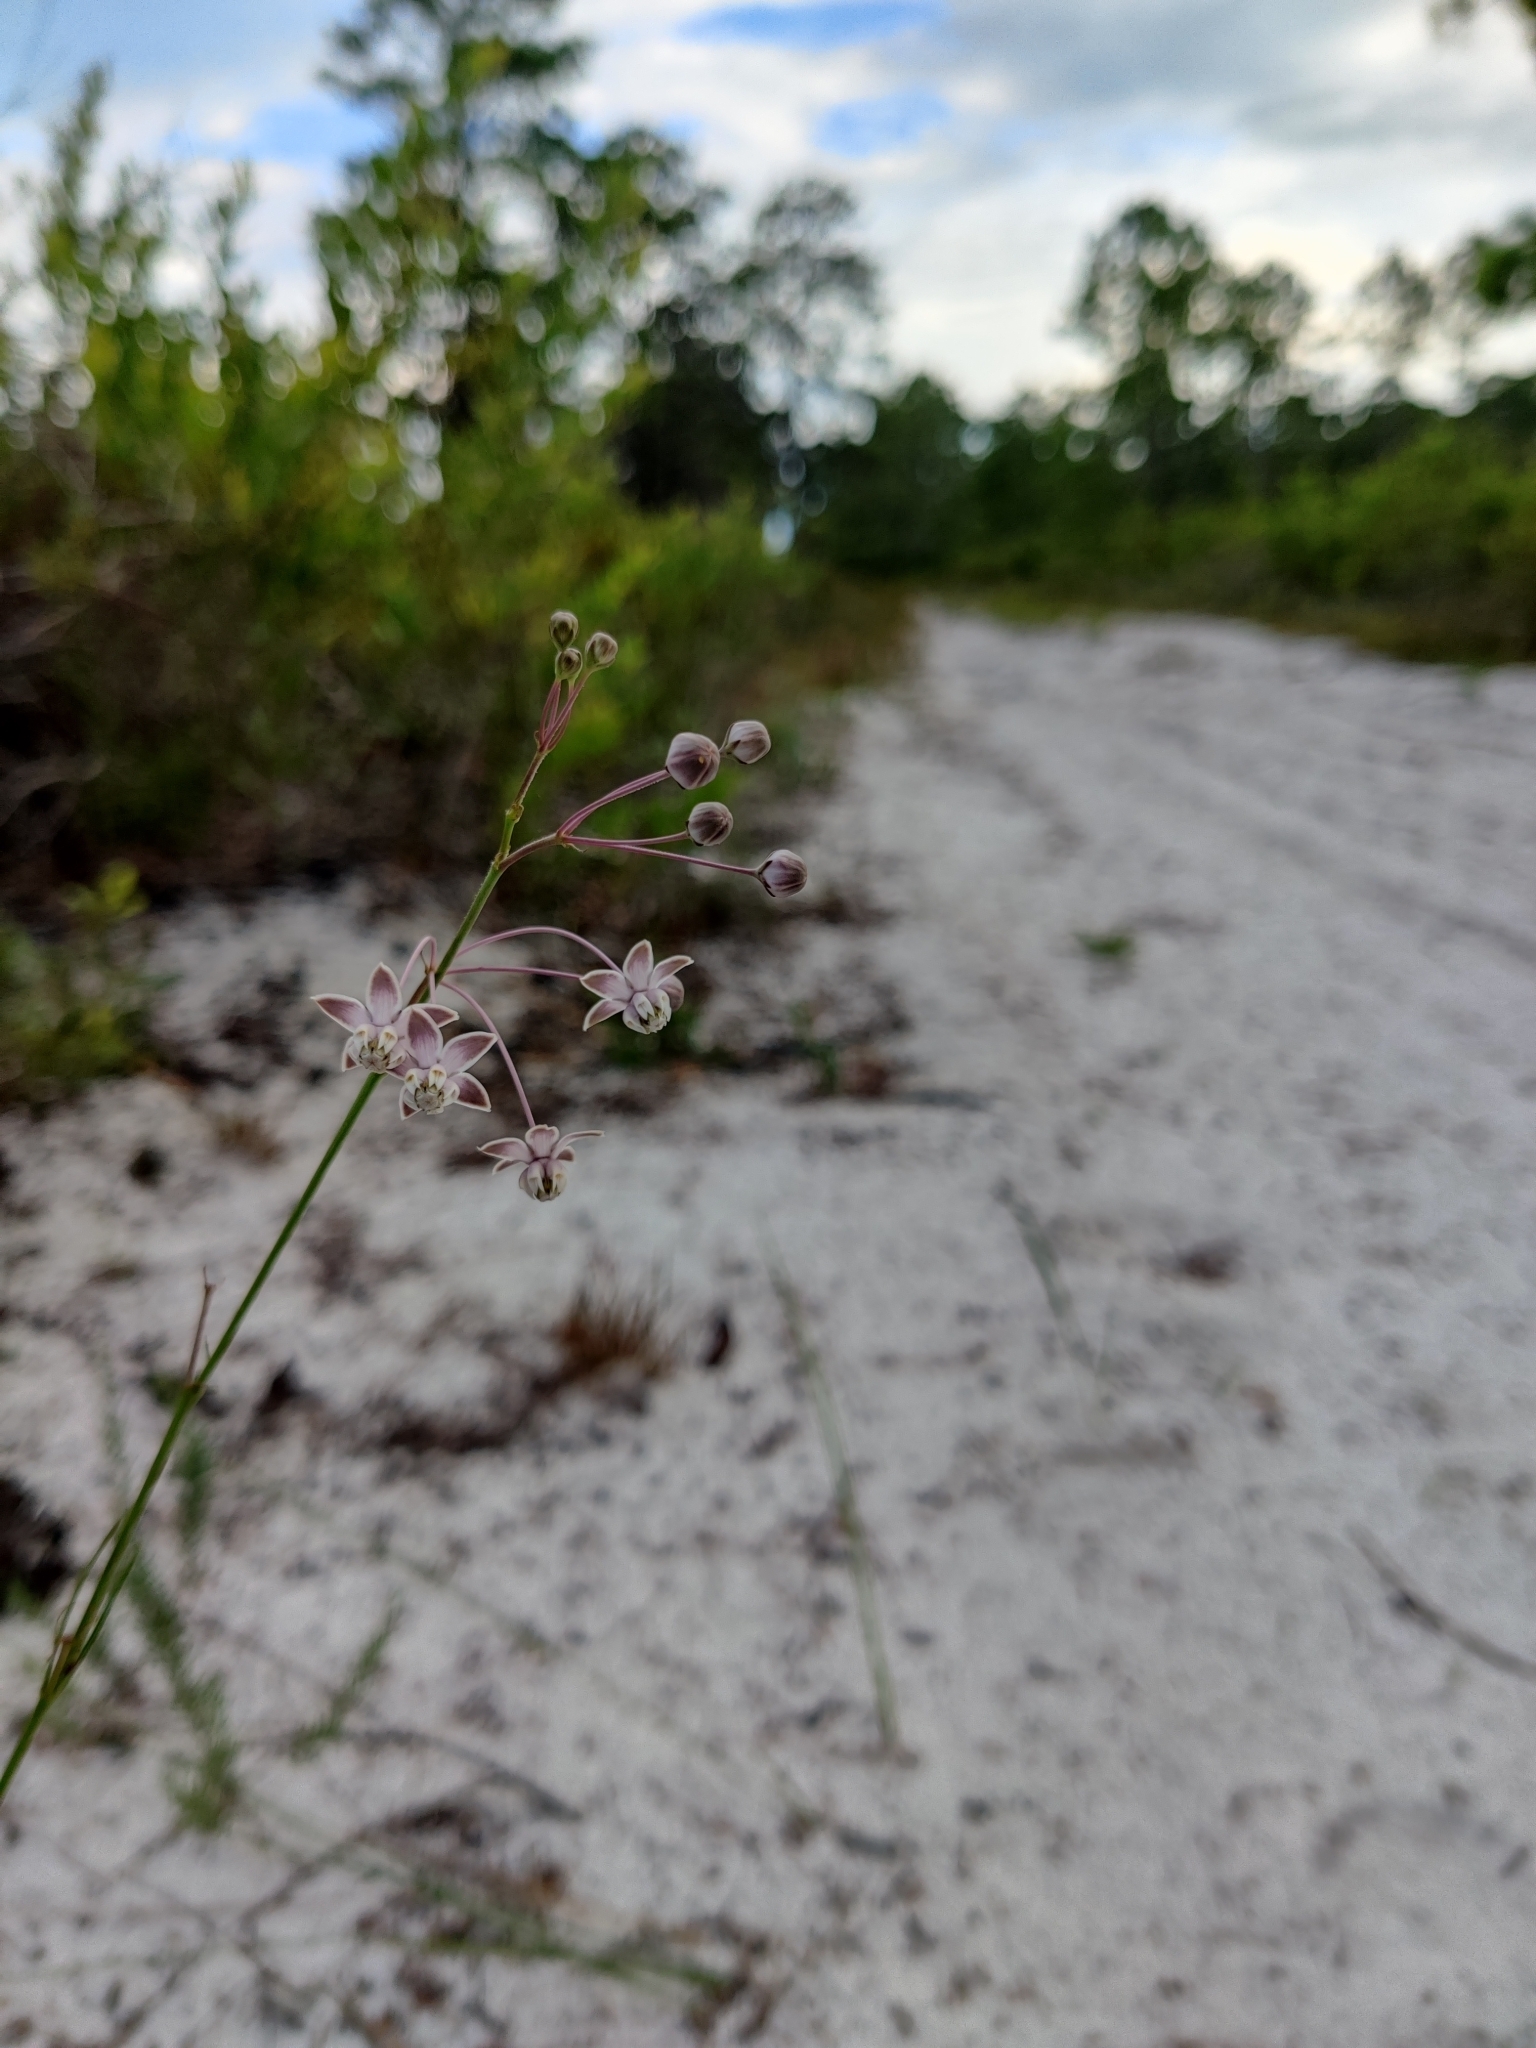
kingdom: Plantae
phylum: Tracheophyta
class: Magnoliopsida
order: Gentianales
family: Apocynaceae
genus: Asclepias
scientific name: Asclepias cinerea
